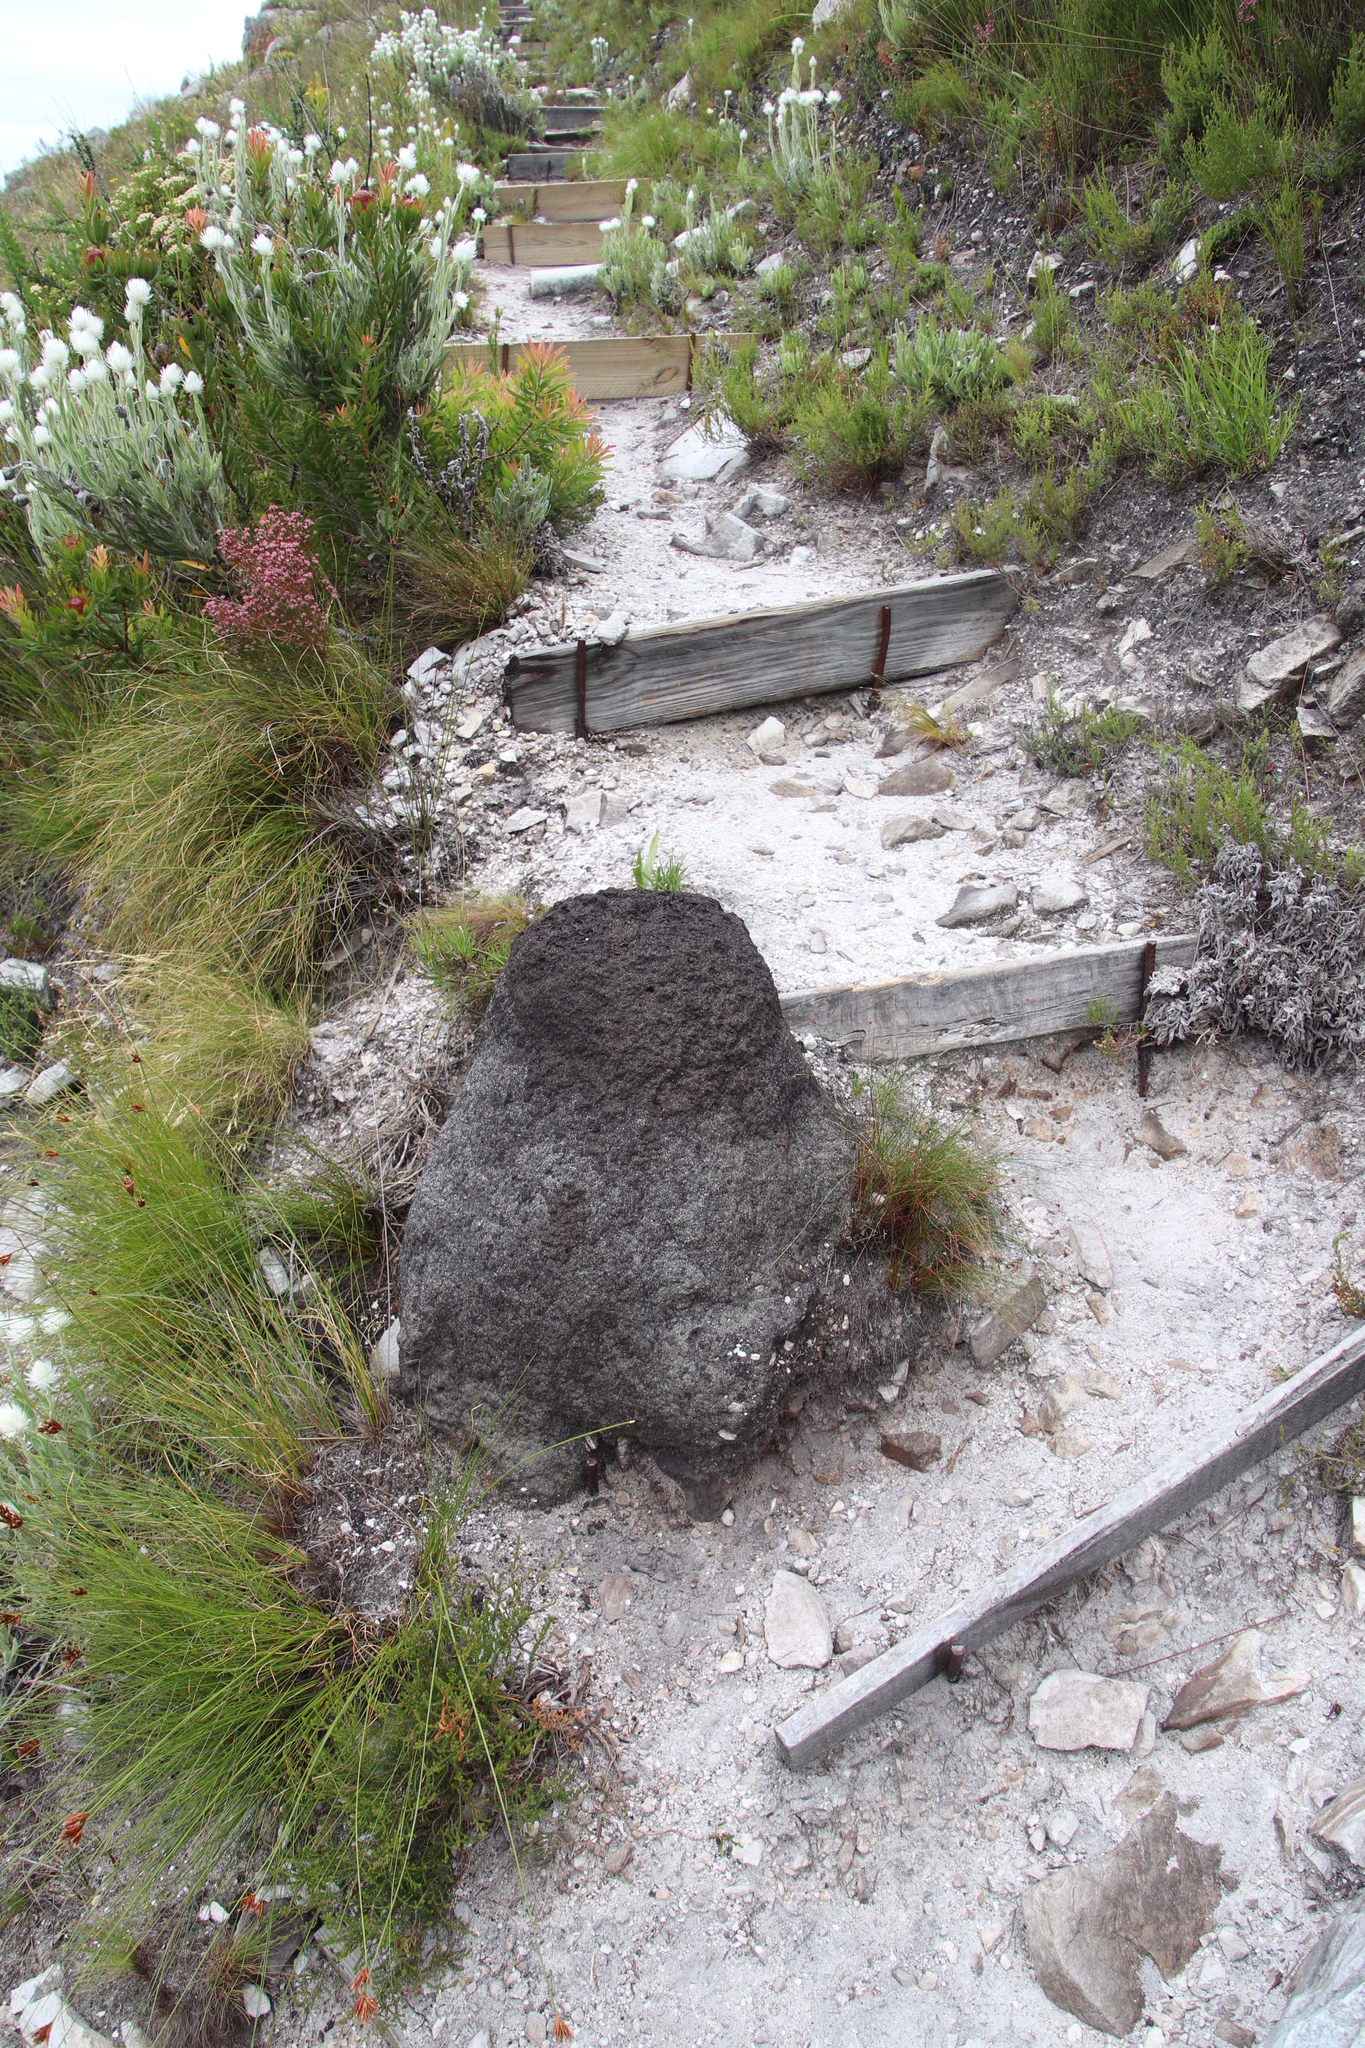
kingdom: Animalia
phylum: Arthropoda
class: Insecta
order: Blattodea
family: Termitidae
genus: Amitermes
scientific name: Amitermes hastatus
